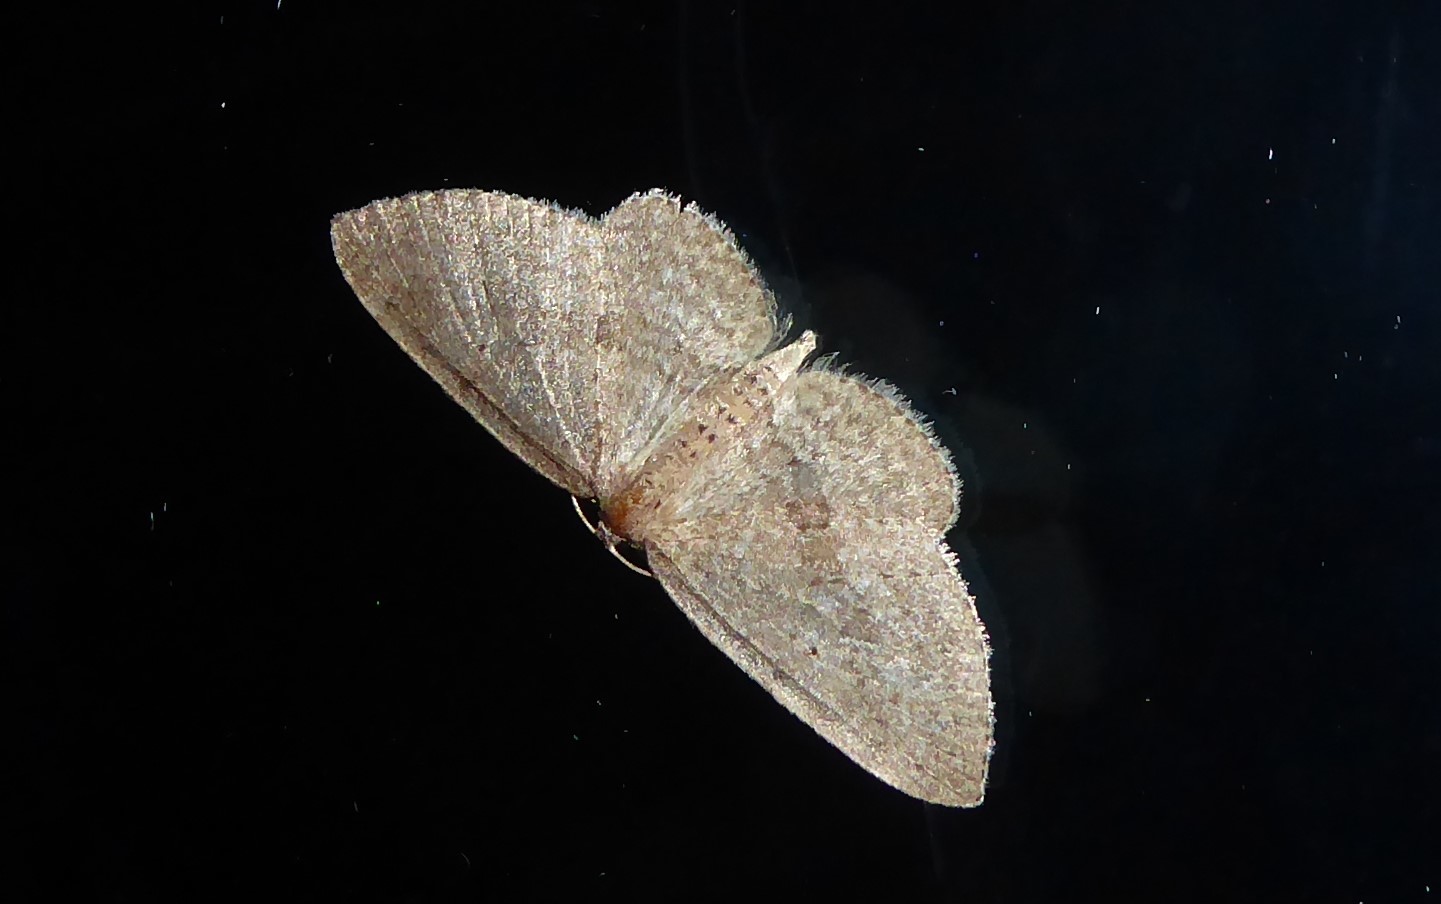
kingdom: Animalia
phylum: Arthropoda
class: Insecta
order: Lepidoptera
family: Geometridae
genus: Poecilasthena
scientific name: Poecilasthena schistaria
